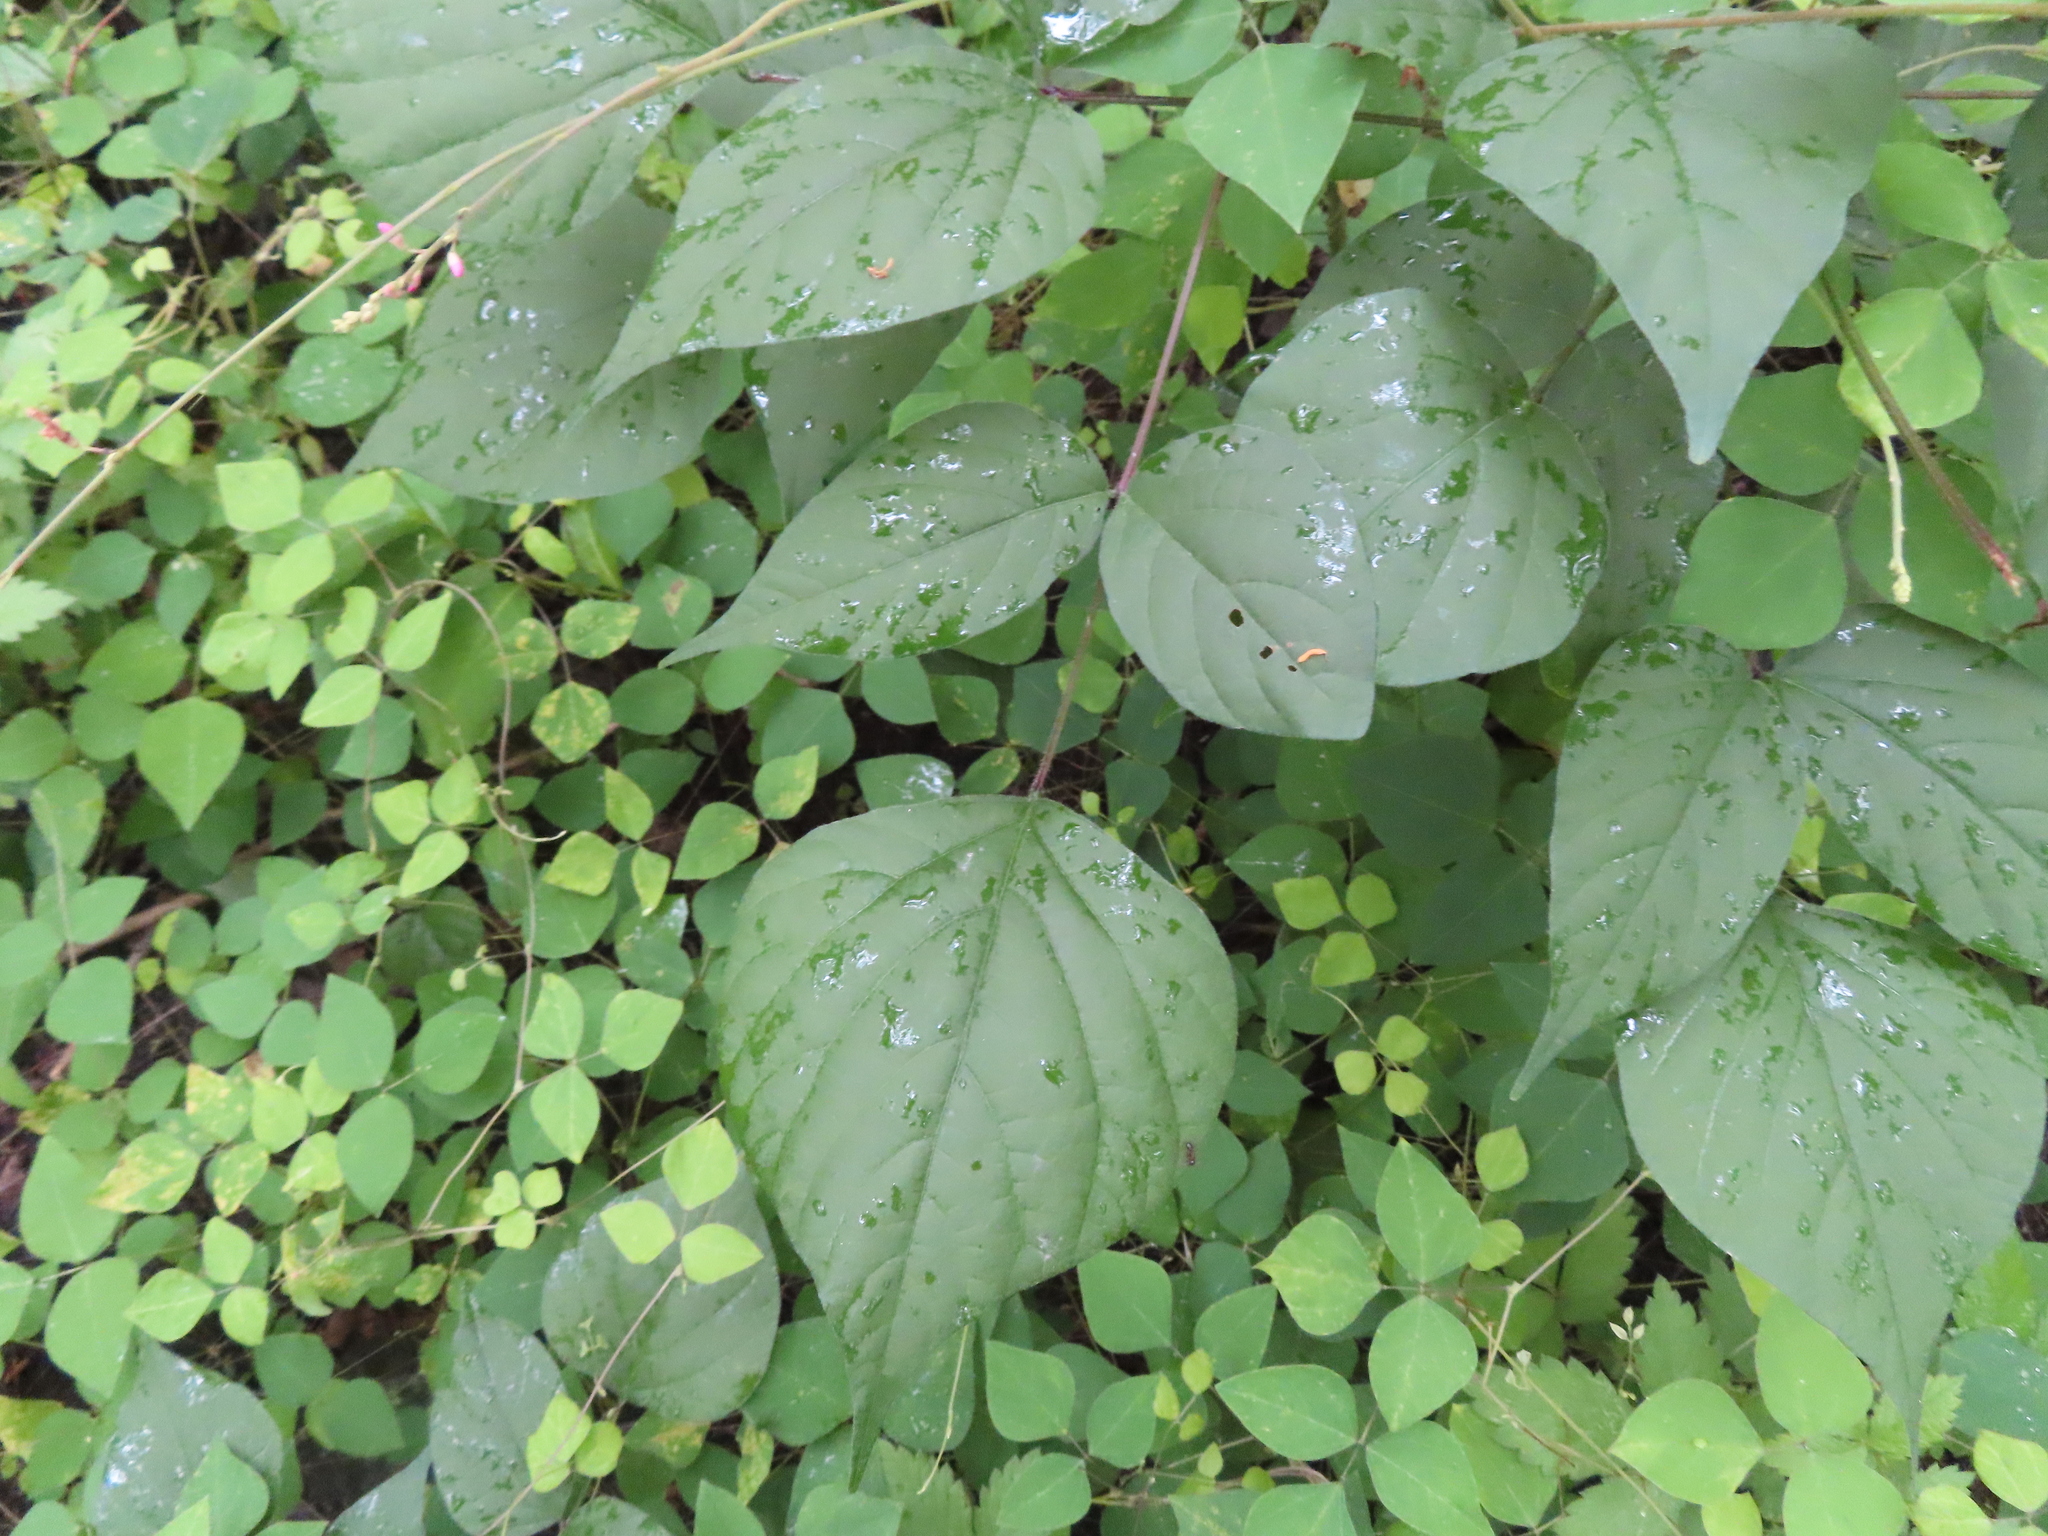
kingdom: Plantae
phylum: Tracheophyta
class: Magnoliopsida
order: Fabales
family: Fabaceae
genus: Hylodesmum
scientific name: Hylodesmum glutinosum
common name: Clustered-leaved tick-trefoil
